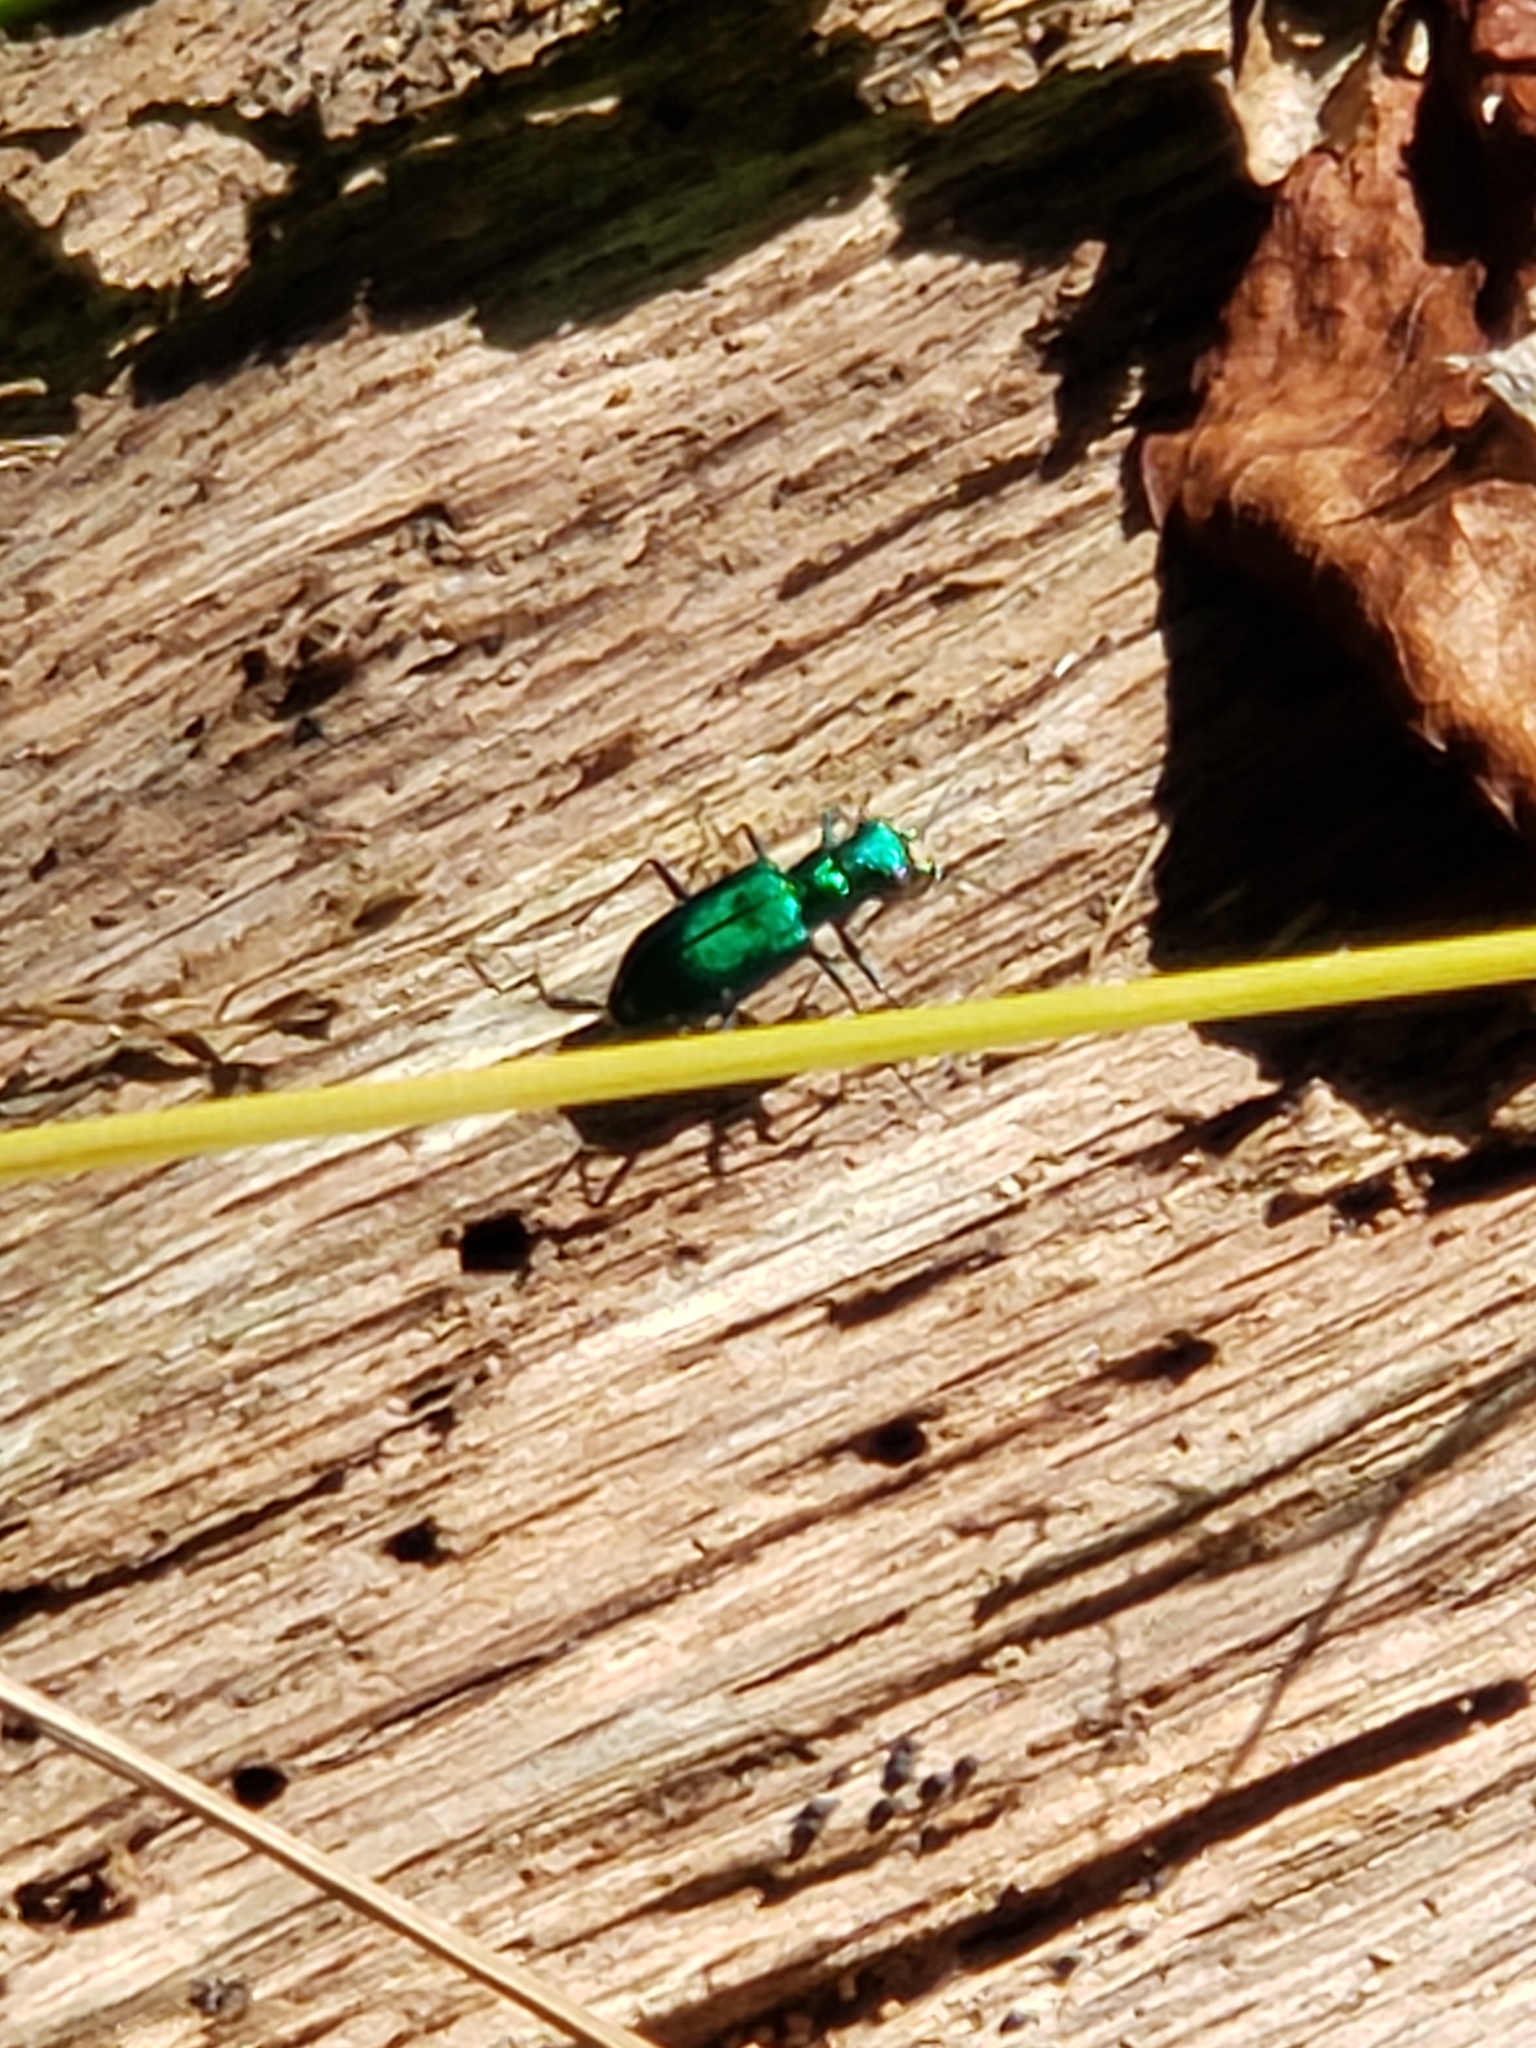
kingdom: Animalia
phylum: Arthropoda
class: Insecta
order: Coleoptera
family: Carabidae
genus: Cicindela
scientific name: Cicindela sexguttata
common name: Six-spotted tiger beetle
